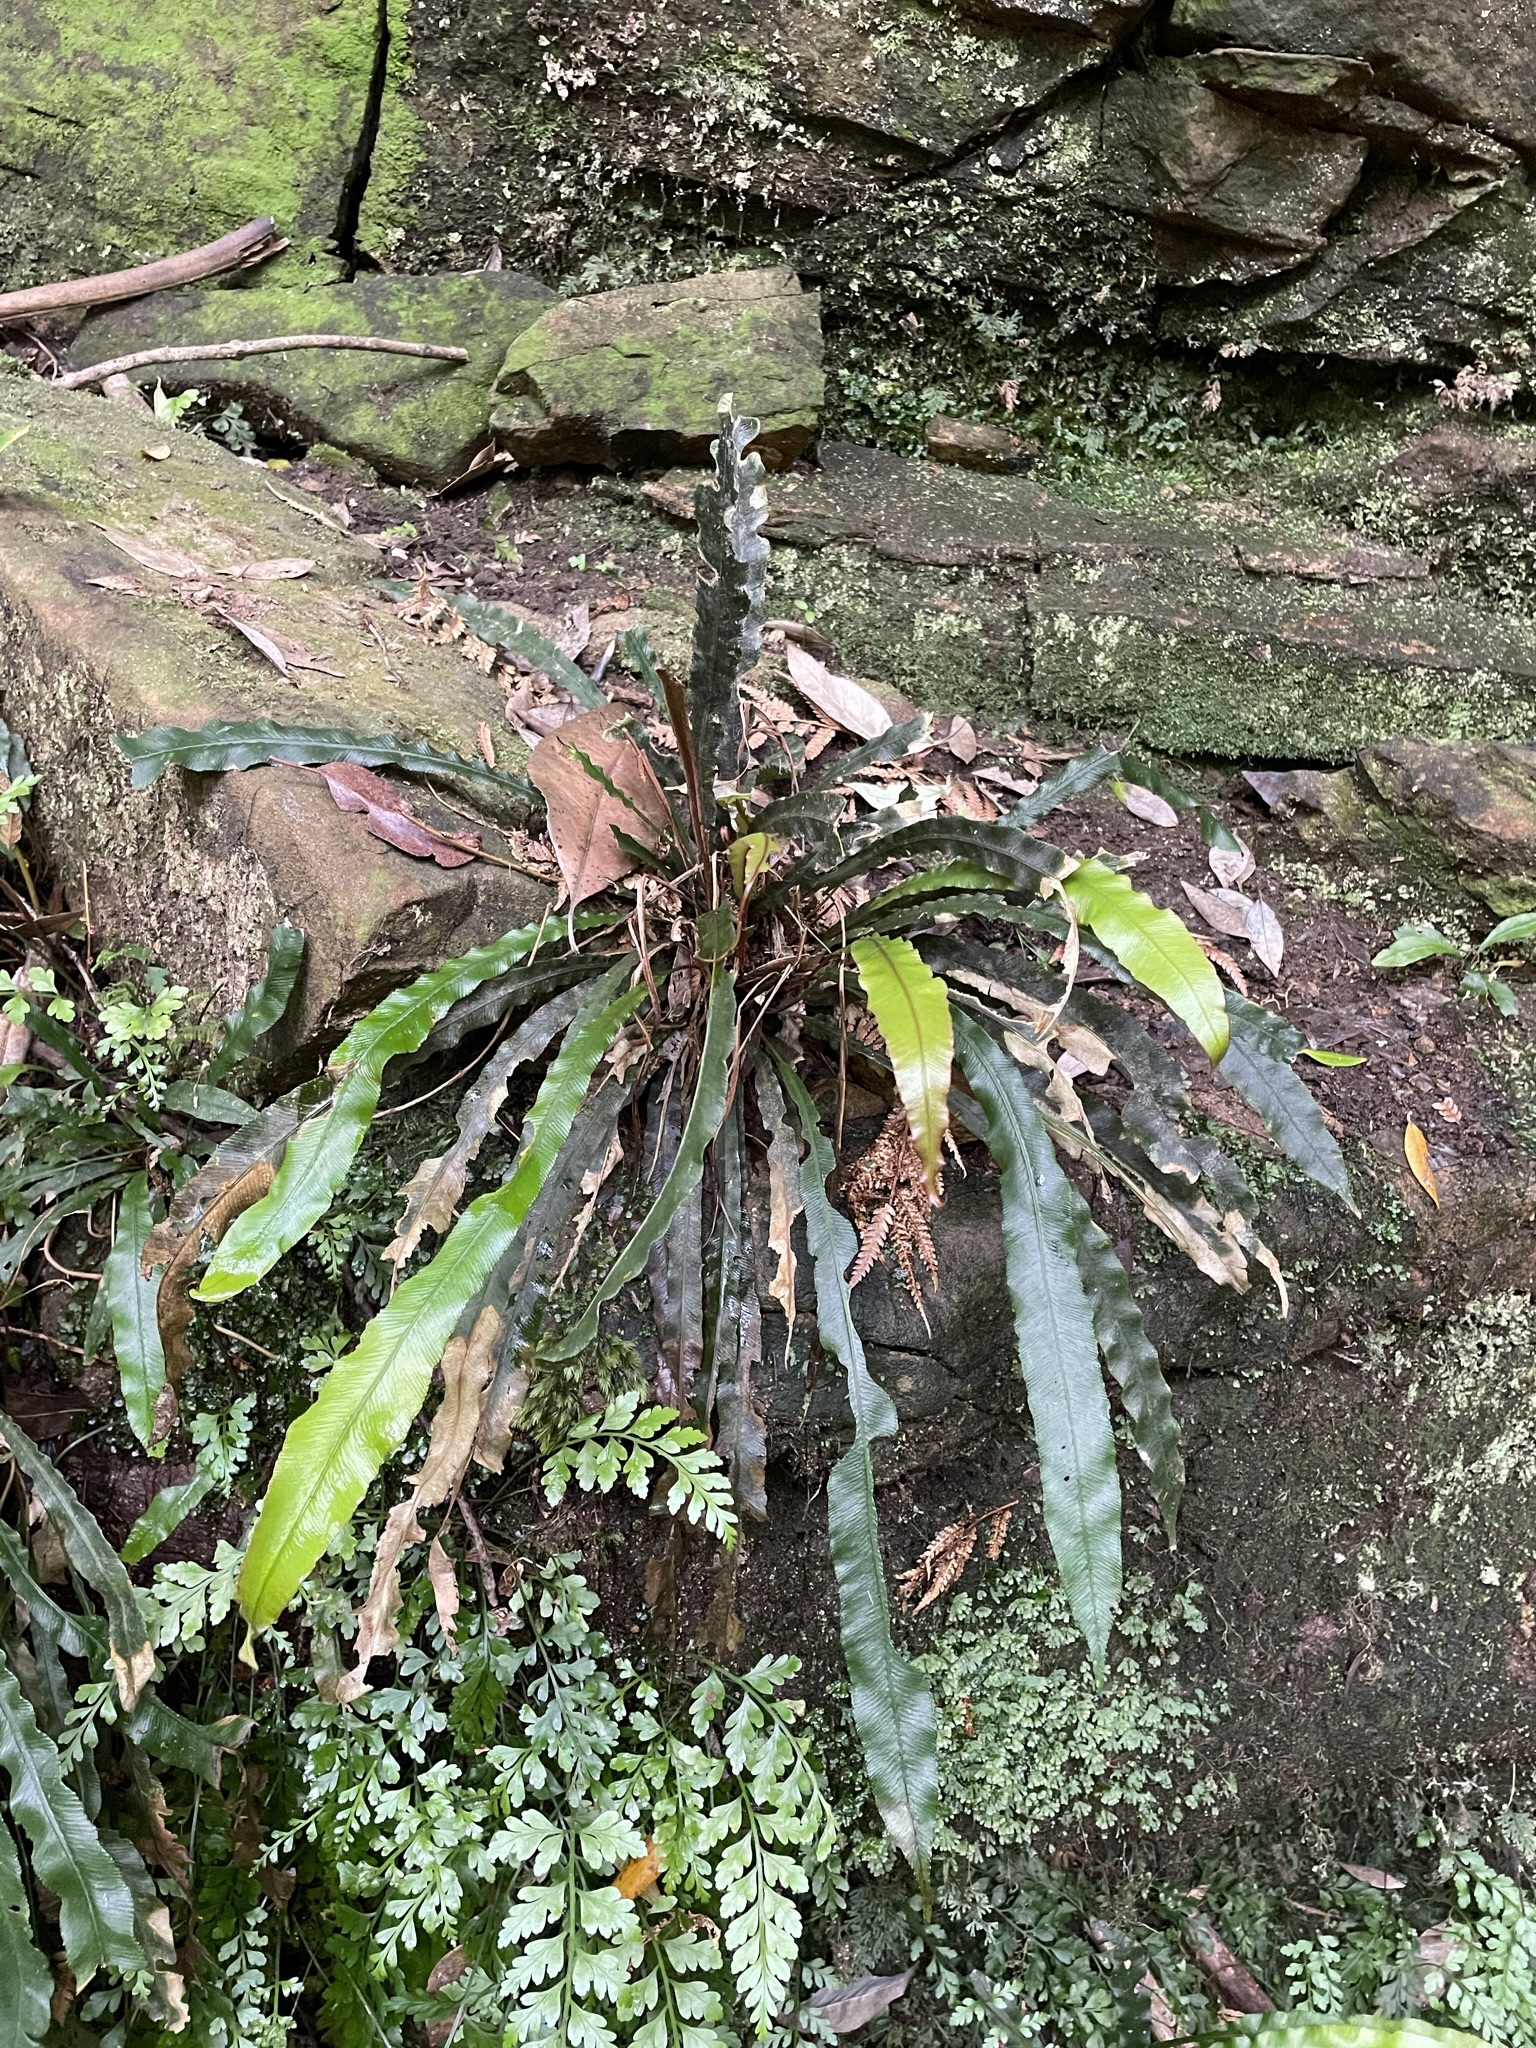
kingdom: Plantae
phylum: Tracheophyta
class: Polypodiopsida
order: Polypodiales
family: Blechnaceae
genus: Austroblechnum
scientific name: Austroblechnum patersonii
